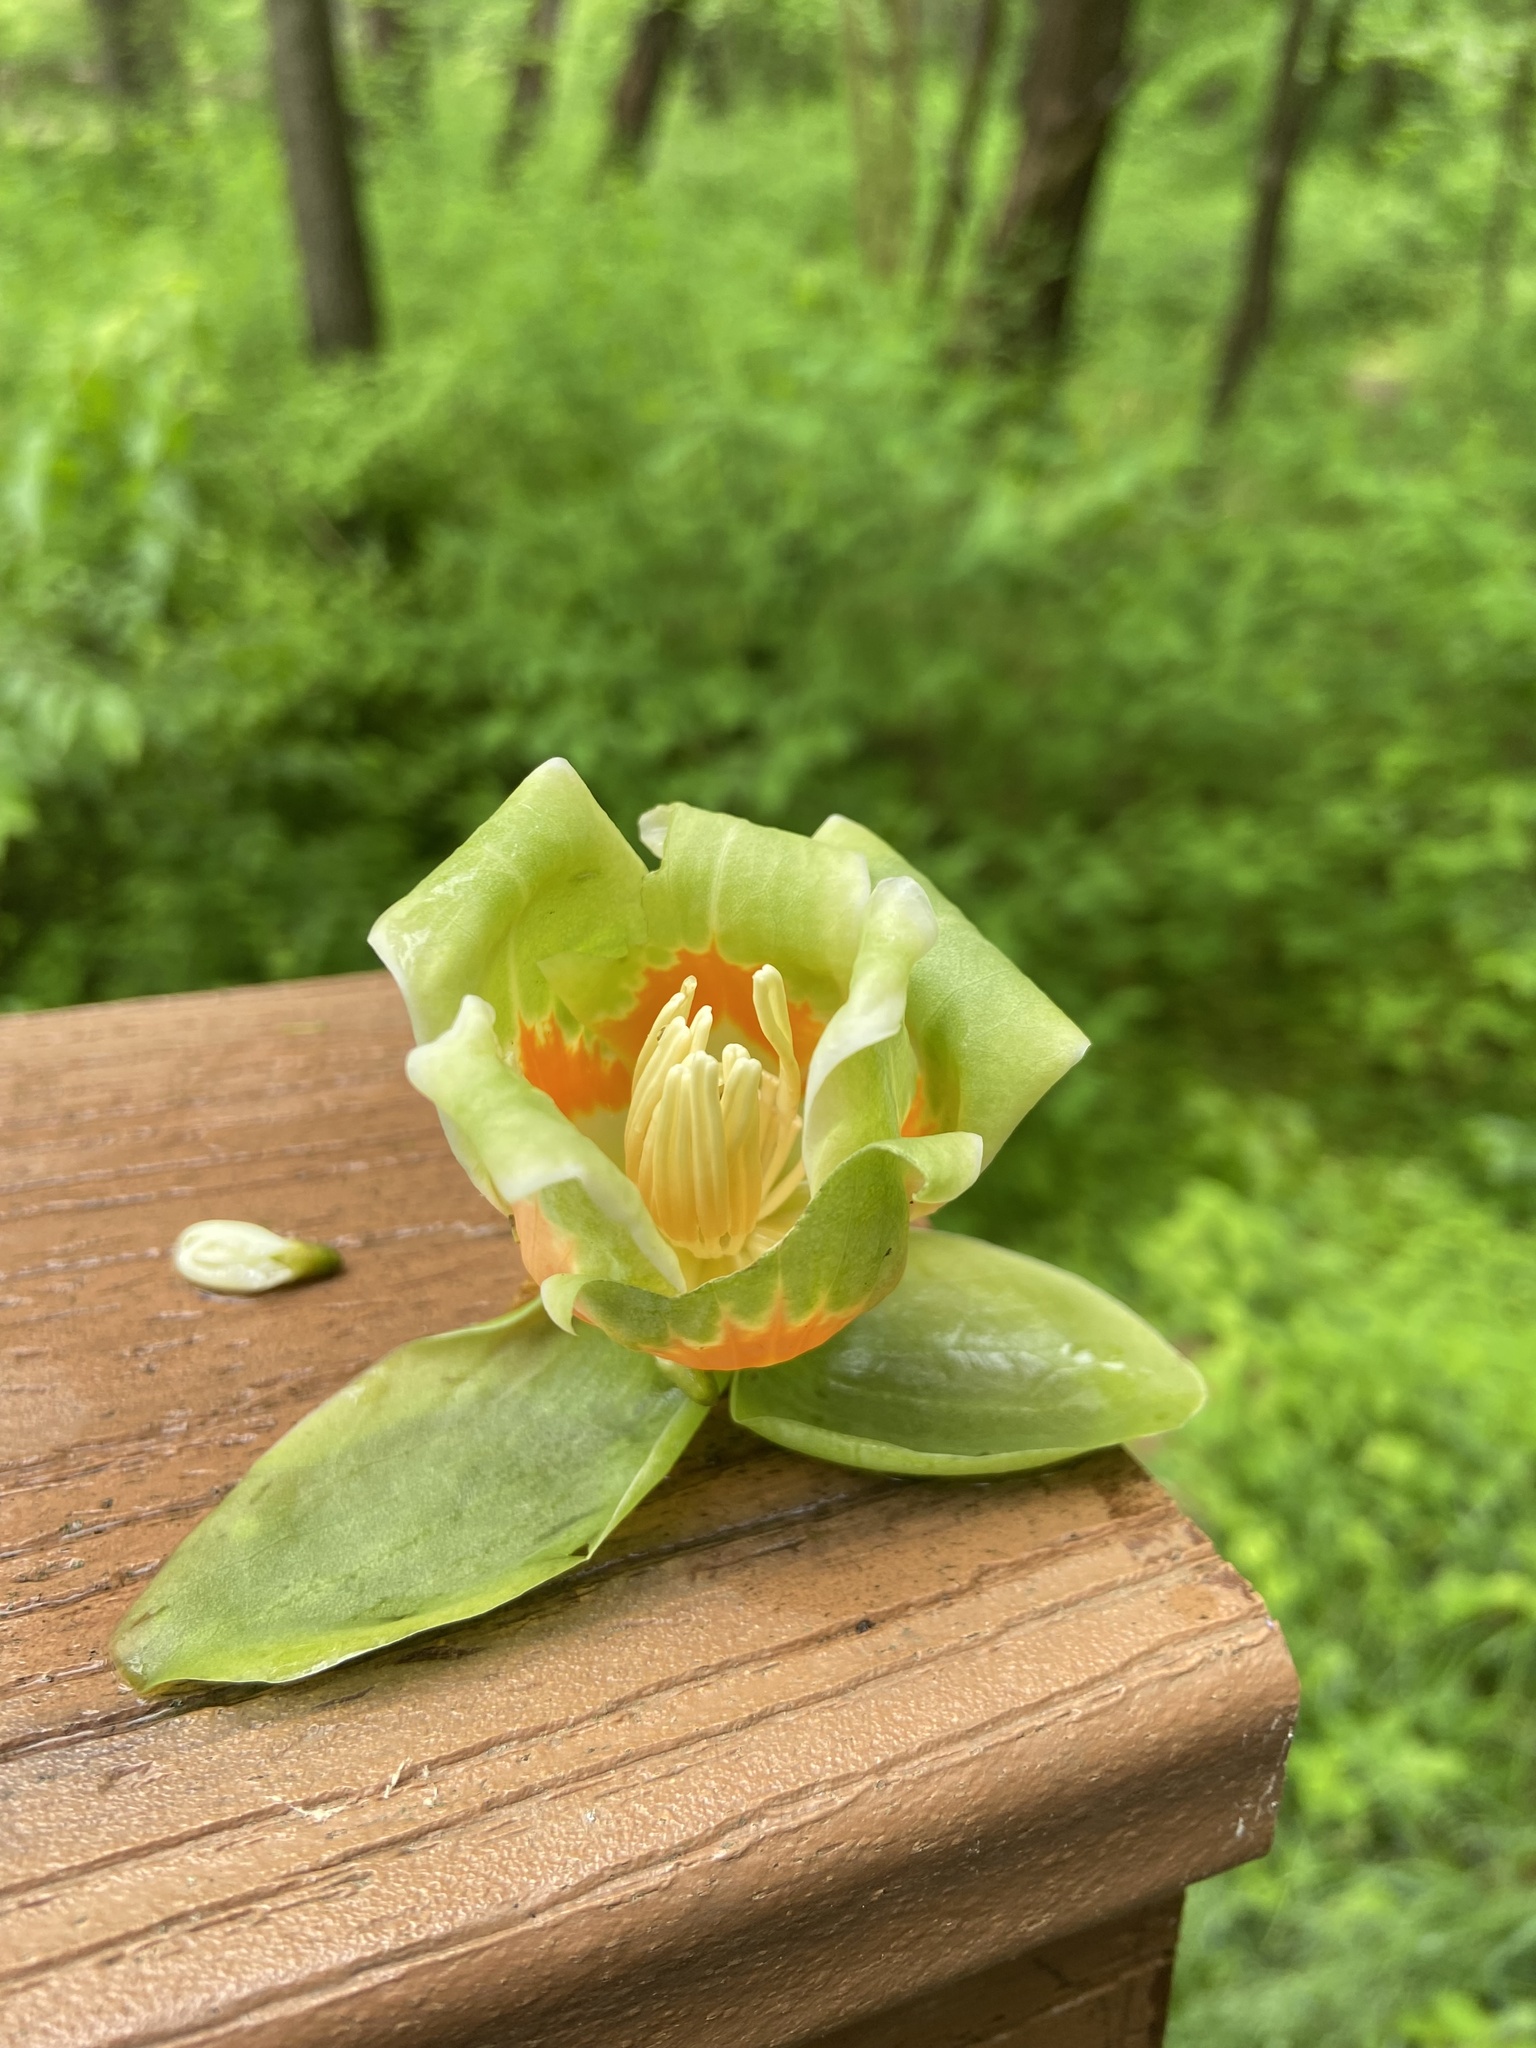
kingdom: Plantae
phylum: Tracheophyta
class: Magnoliopsida
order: Magnoliales
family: Magnoliaceae
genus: Liriodendron
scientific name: Liriodendron tulipifera
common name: Tulip tree
